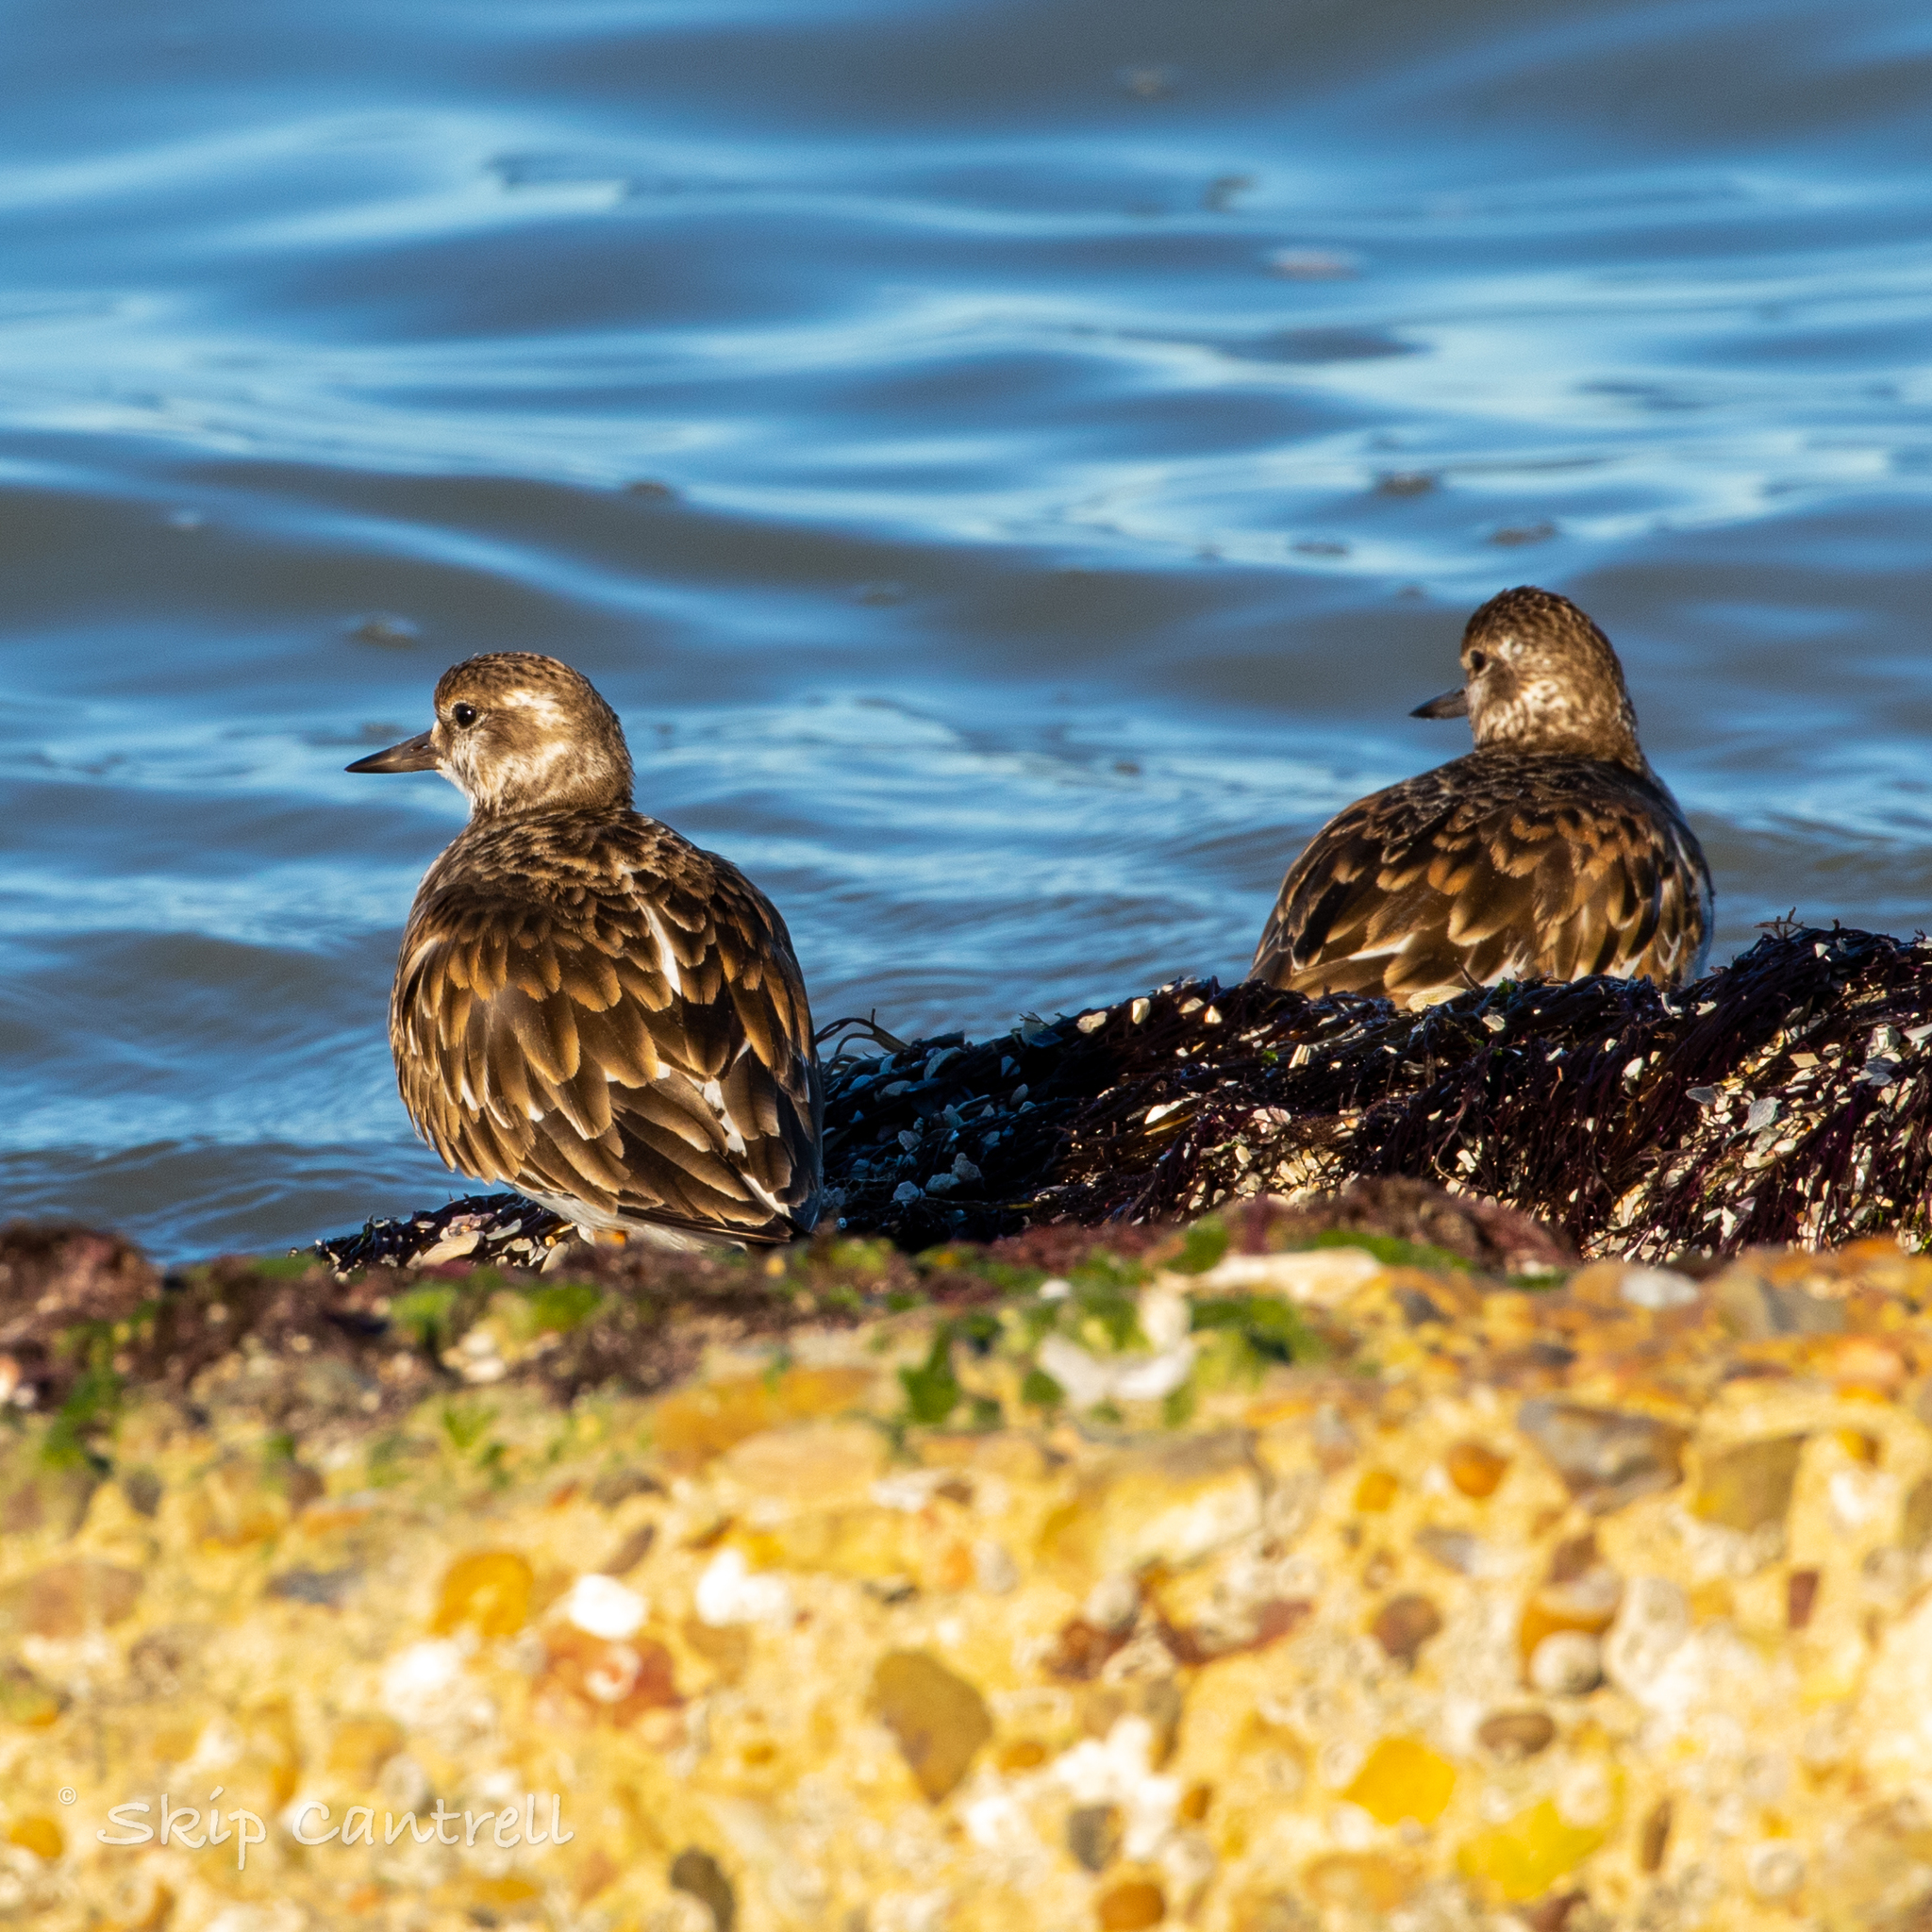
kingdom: Animalia
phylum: Chordata
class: Aves
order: Charadriiformes
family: Scolopacidae
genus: Arenaria
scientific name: Arenaria interpres
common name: Ruddy turnstone
